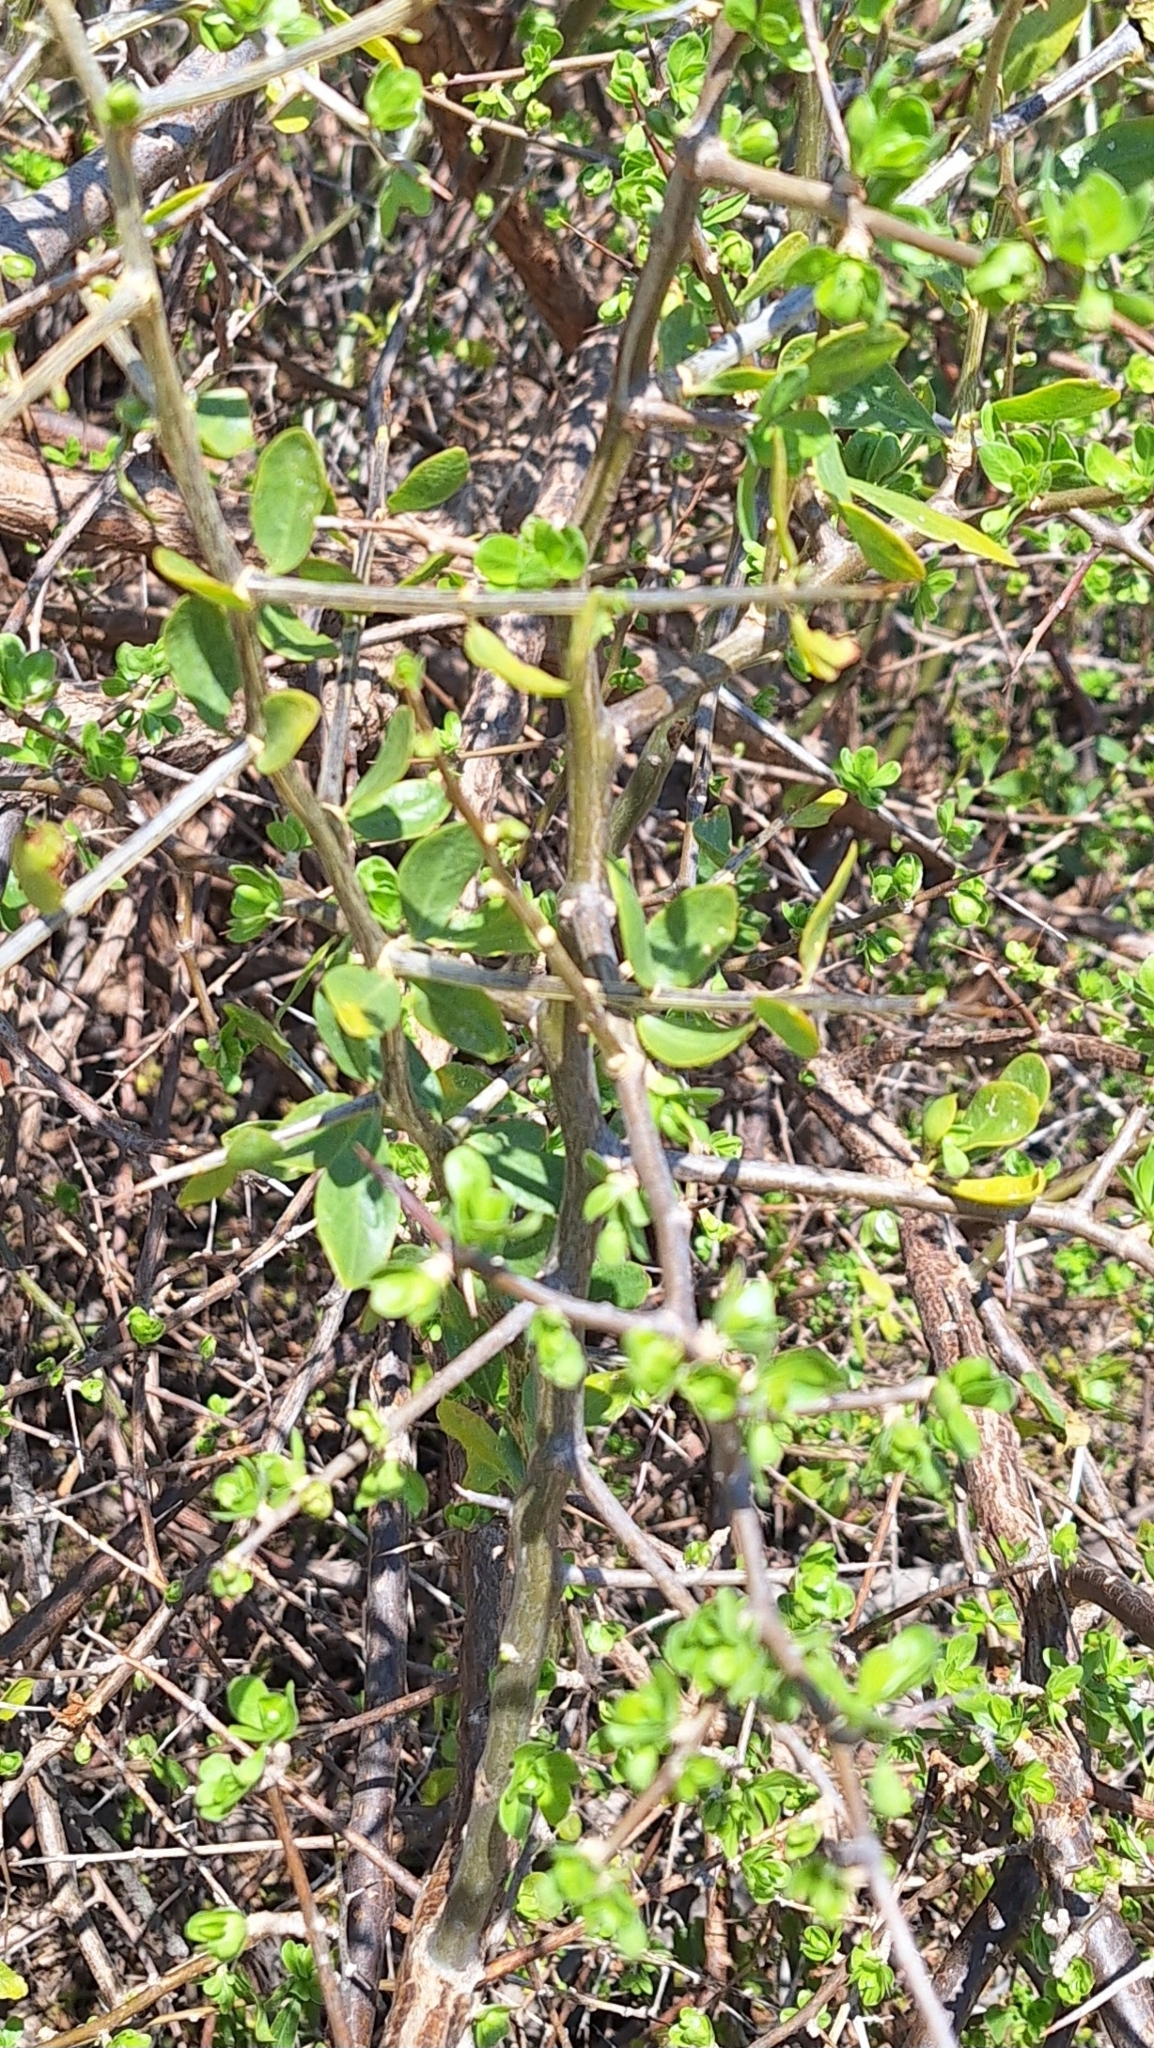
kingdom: Plantae
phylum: Tracheophyta
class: Magnoliopsida
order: Solanales
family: Solanaceae
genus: Lycium
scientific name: Lycium ferocissimum
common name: African boxthorn
